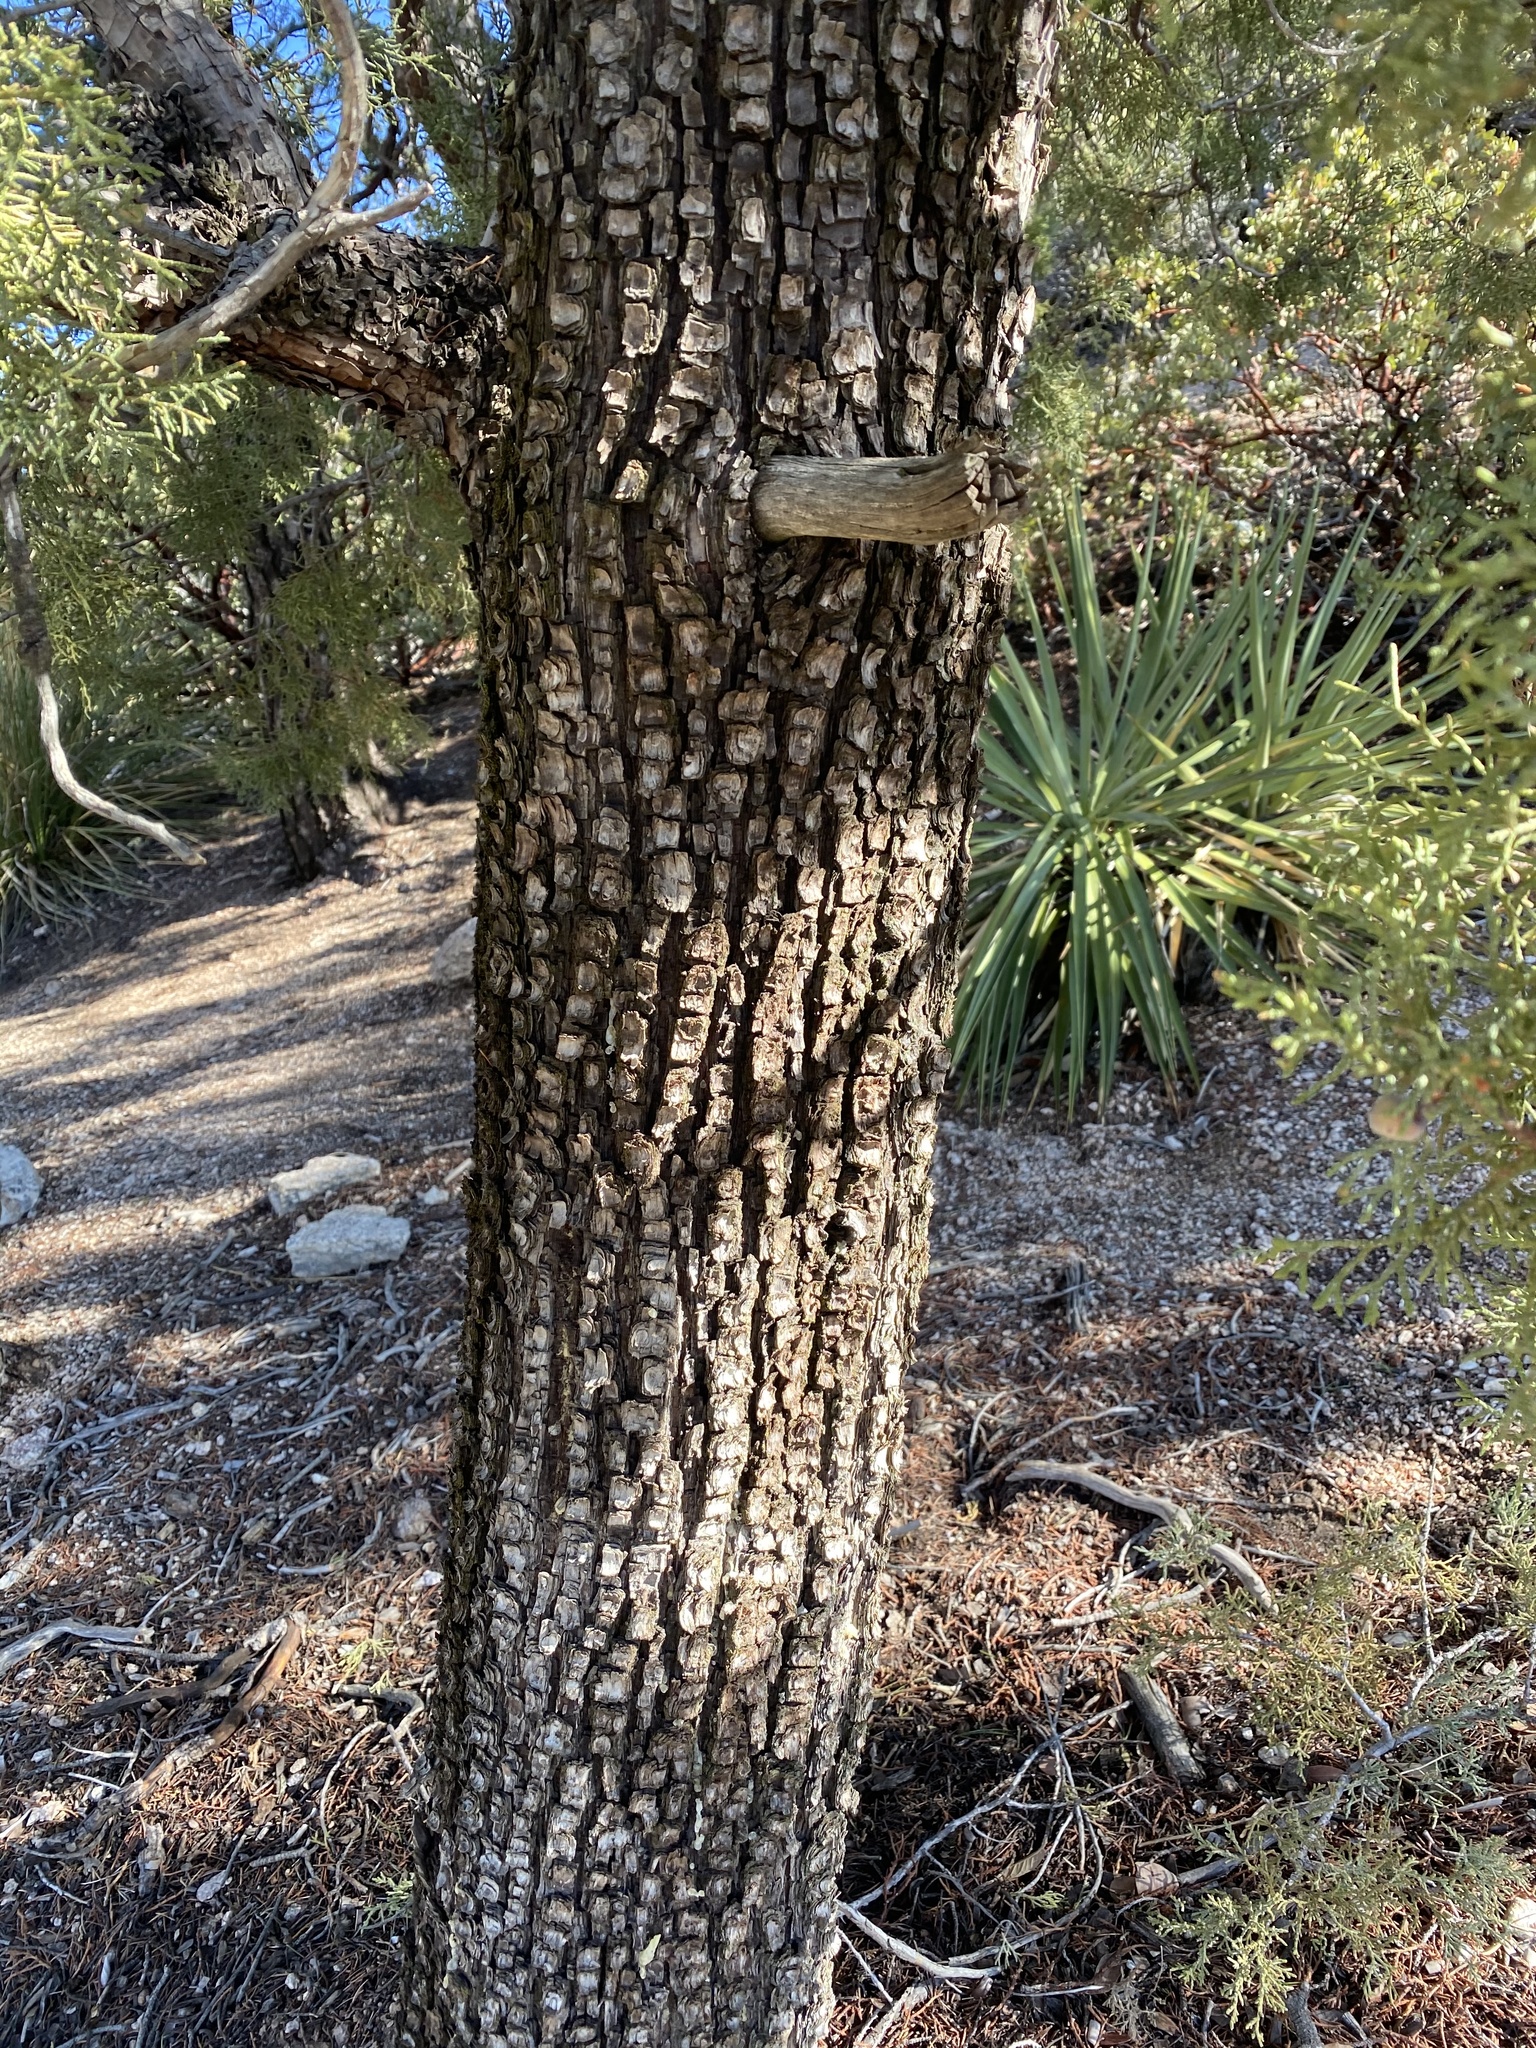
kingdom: Plantae
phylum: Tracheophyta
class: Pinopsida
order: Pinales
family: Cupressaceae
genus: Juniperus
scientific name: Juniperus deppeana
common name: Alligator juniper
